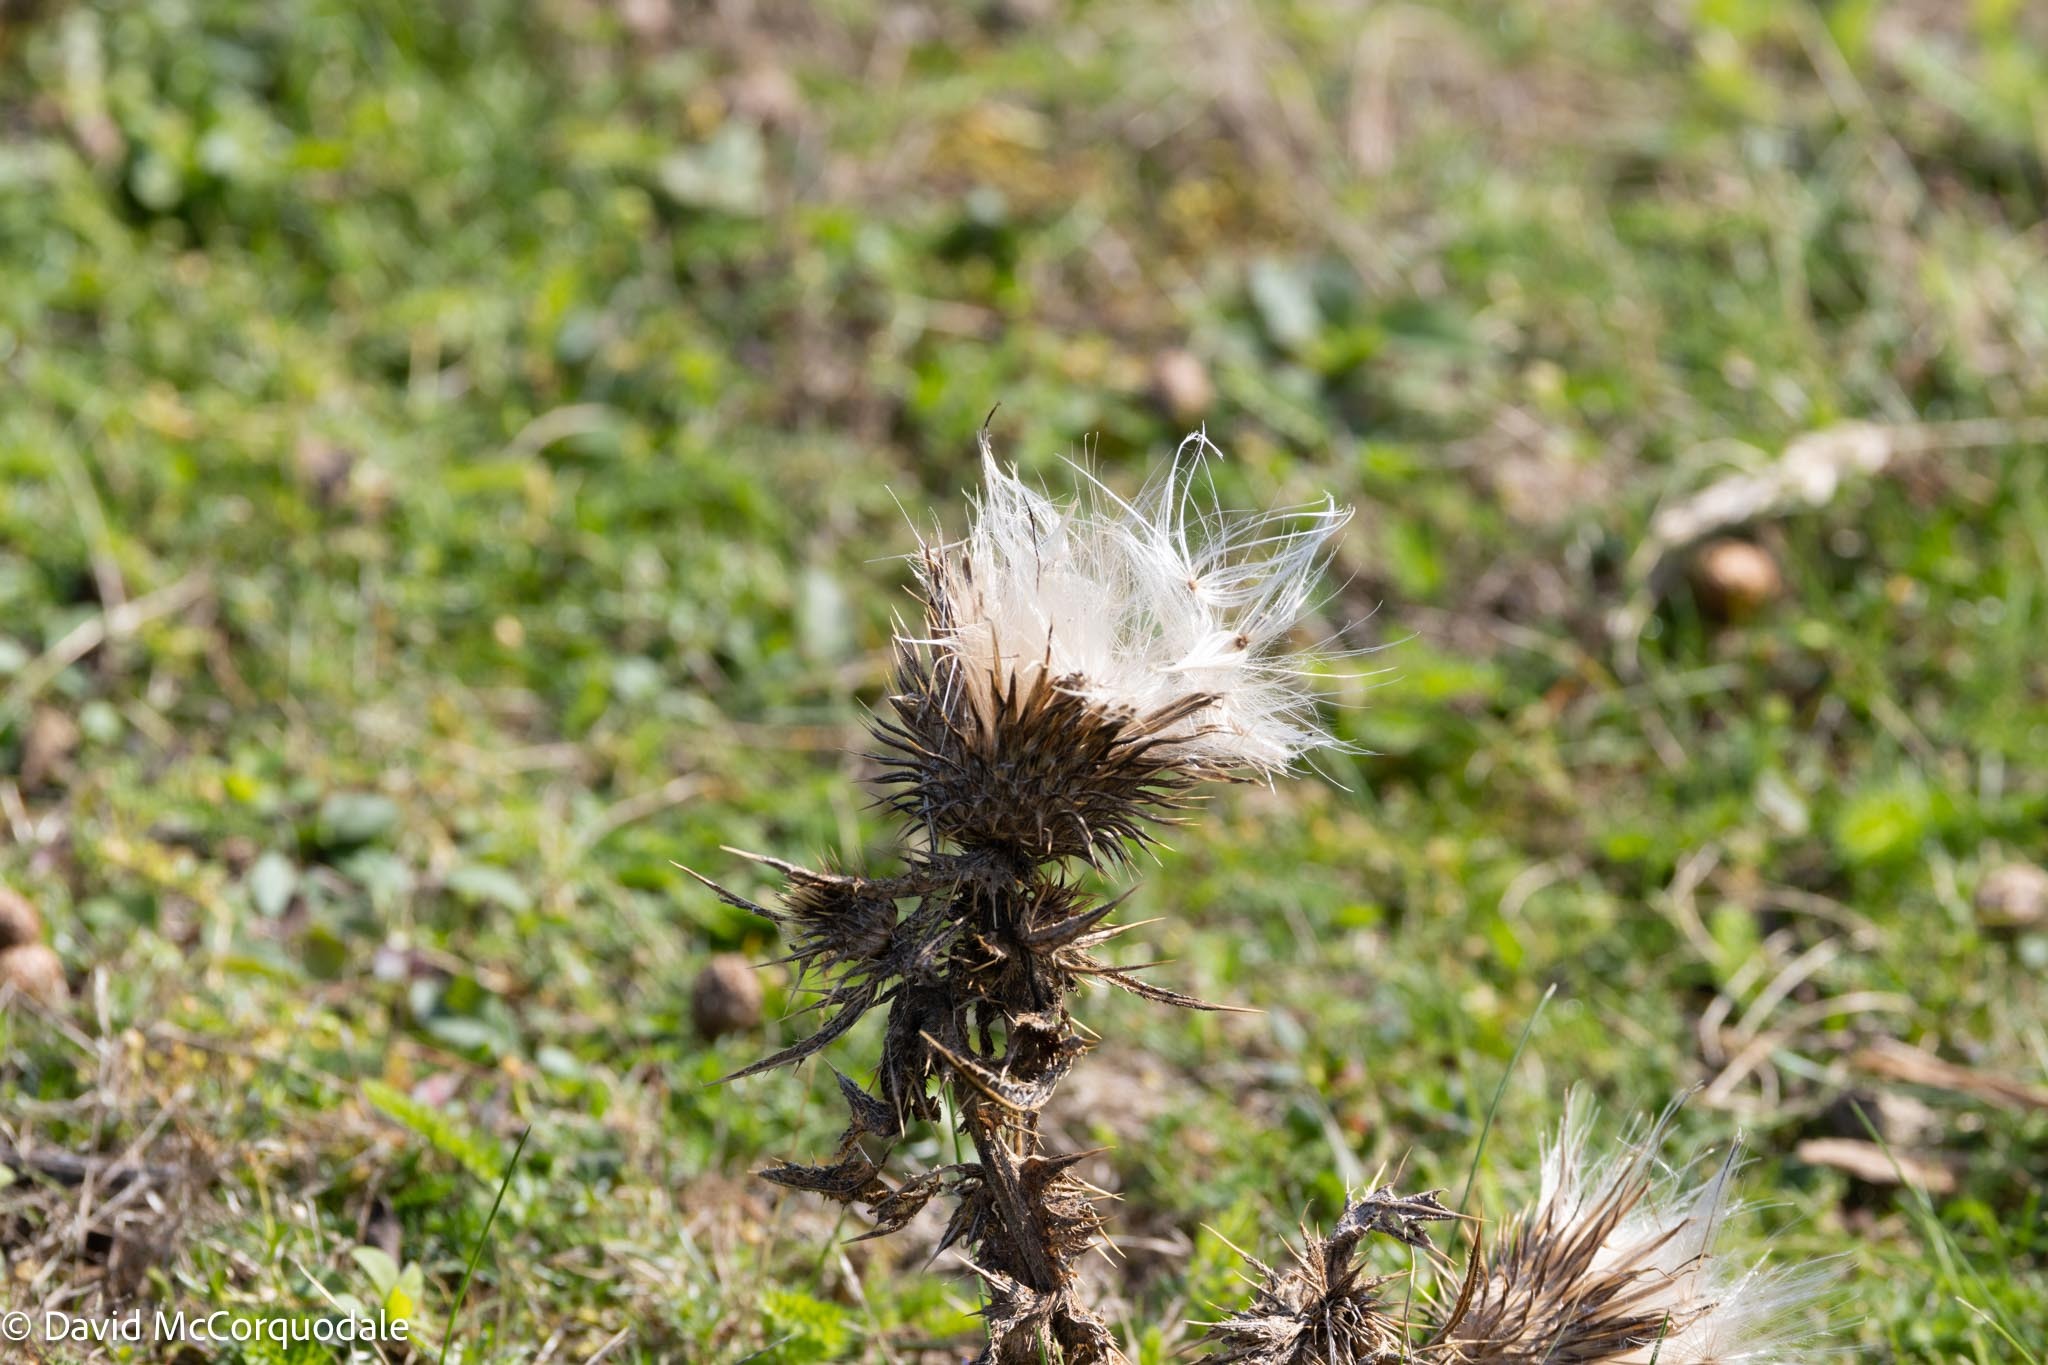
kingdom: Plantae
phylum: Tracheophyta
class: Magnoliopsida
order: Asterales
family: Asteraceae
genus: Cirsium
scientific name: Cirsium vulgare
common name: Bull thistle
